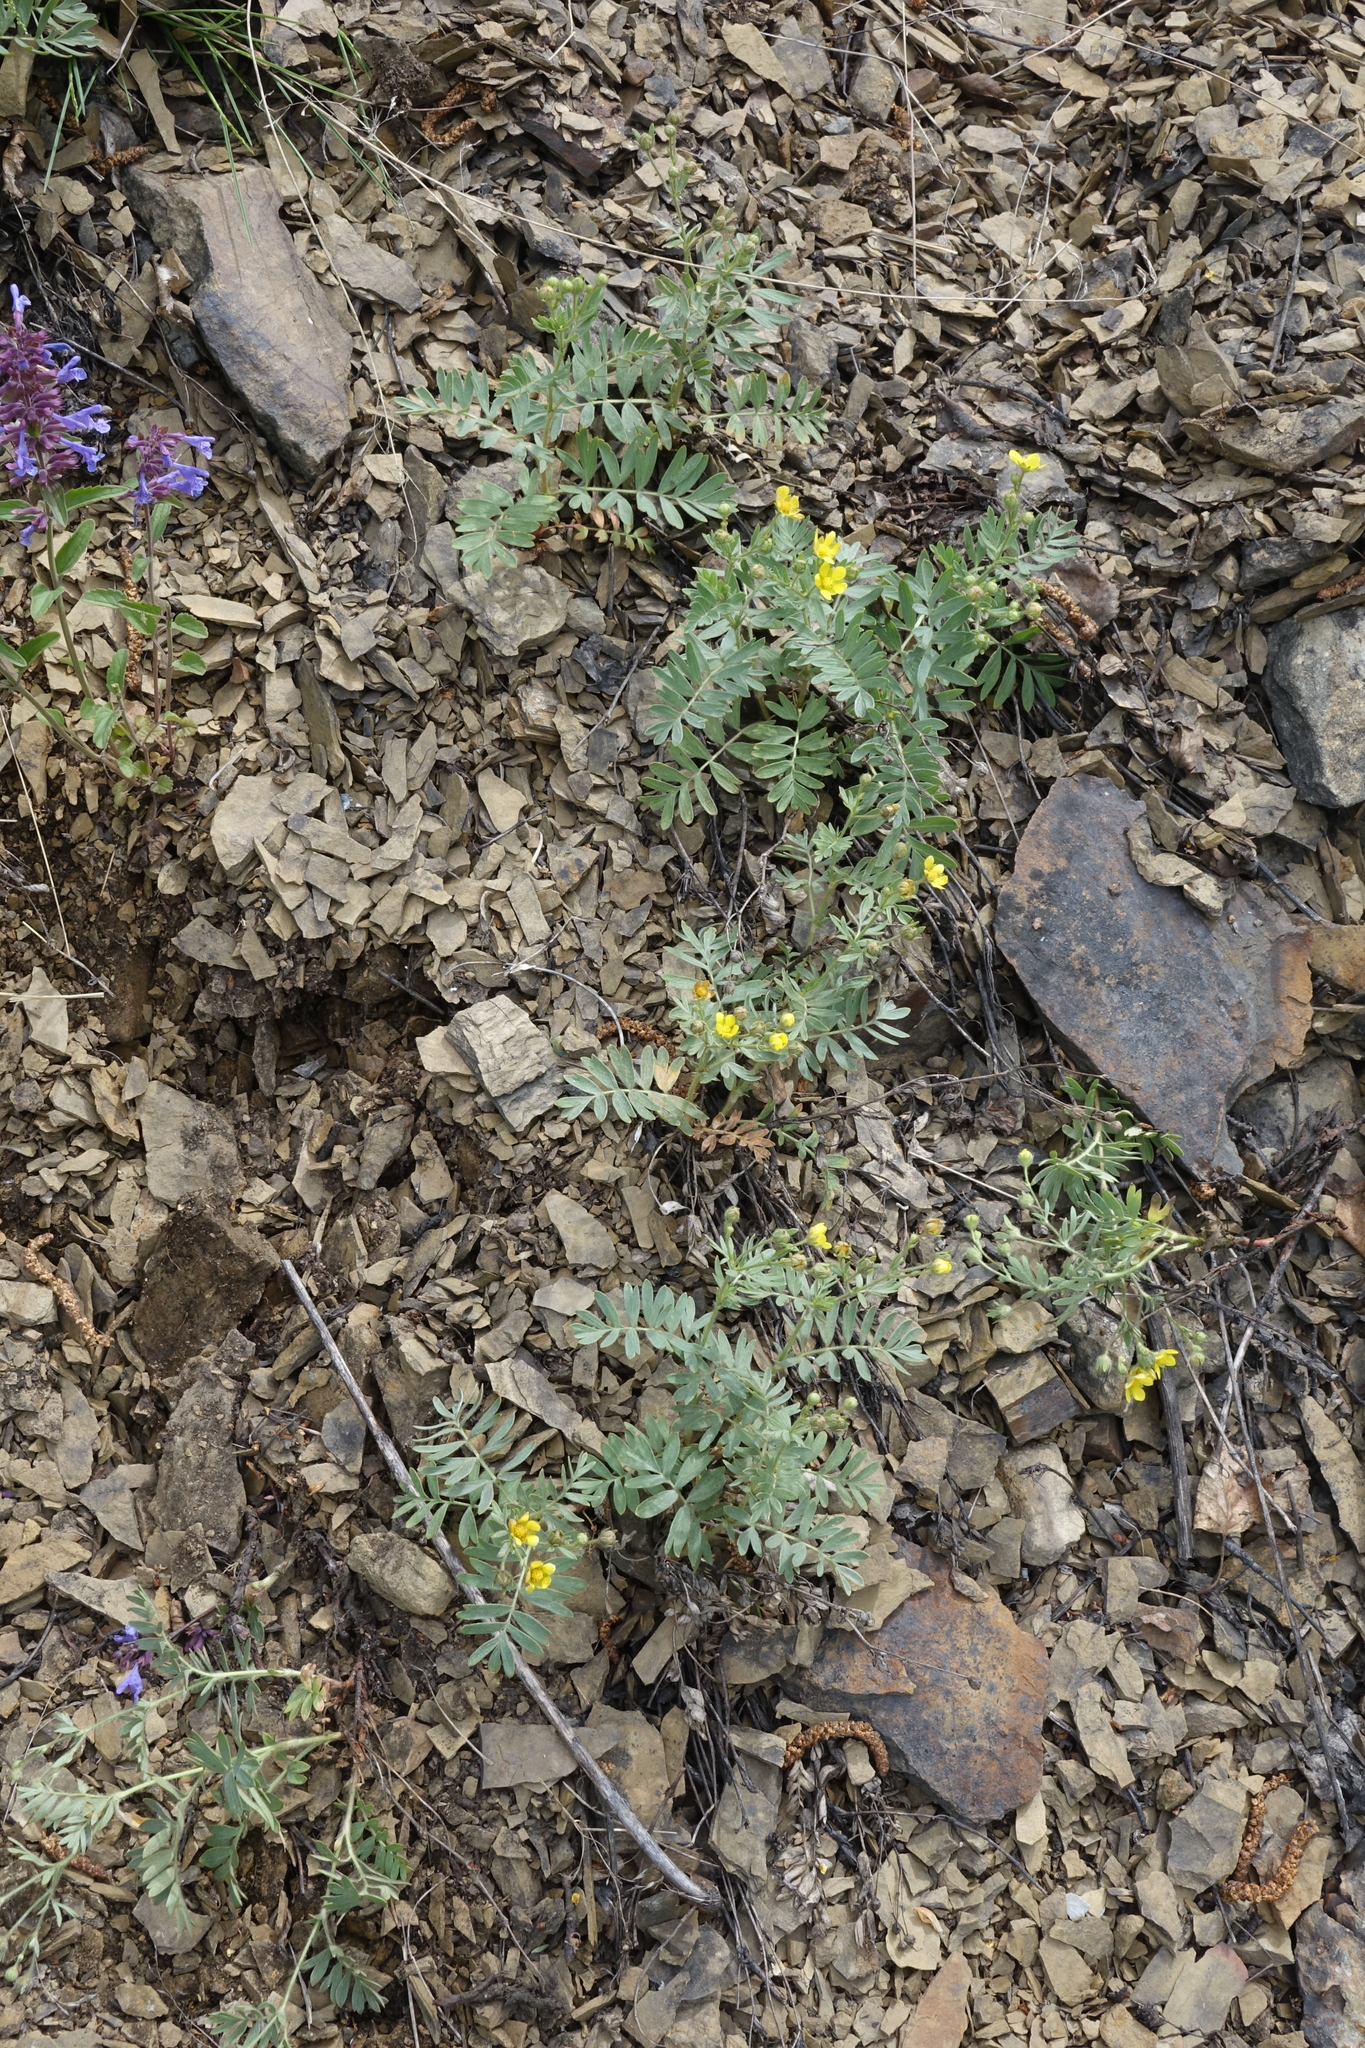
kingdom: Plantae
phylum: Tracheophyta
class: Magnoliopsida
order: Rosales
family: Rosaceae
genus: Sibbaldianthe
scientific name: Sibbaldianthe bifurca
